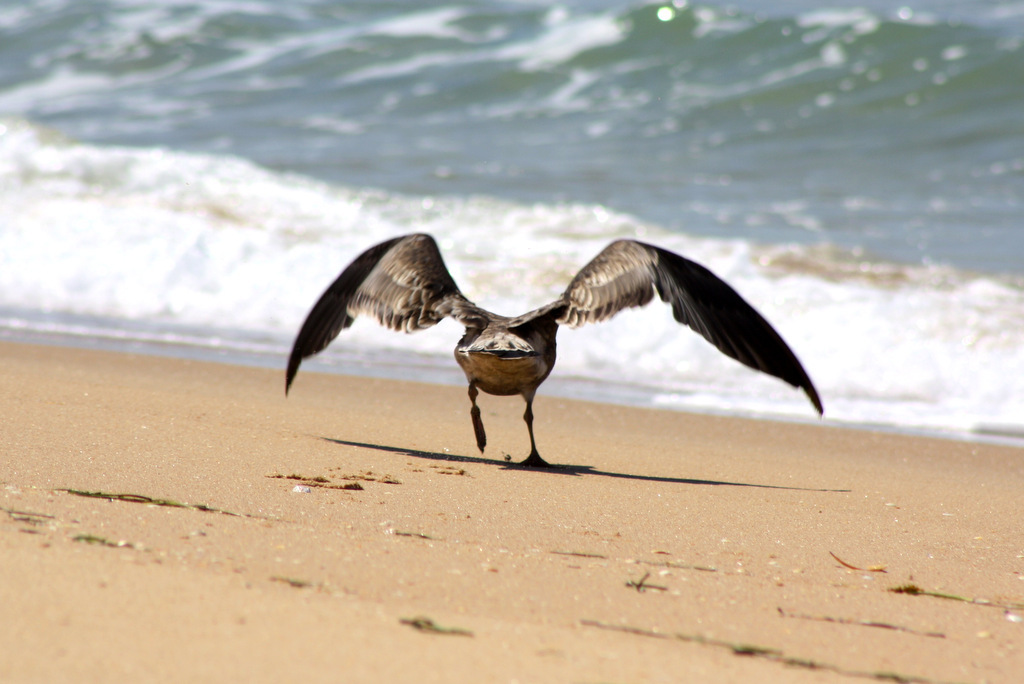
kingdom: Animalia
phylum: Chordata
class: Aves
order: Charadriiformes
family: Laridae
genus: Larus
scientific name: Larus pacificus
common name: Pacific gull
